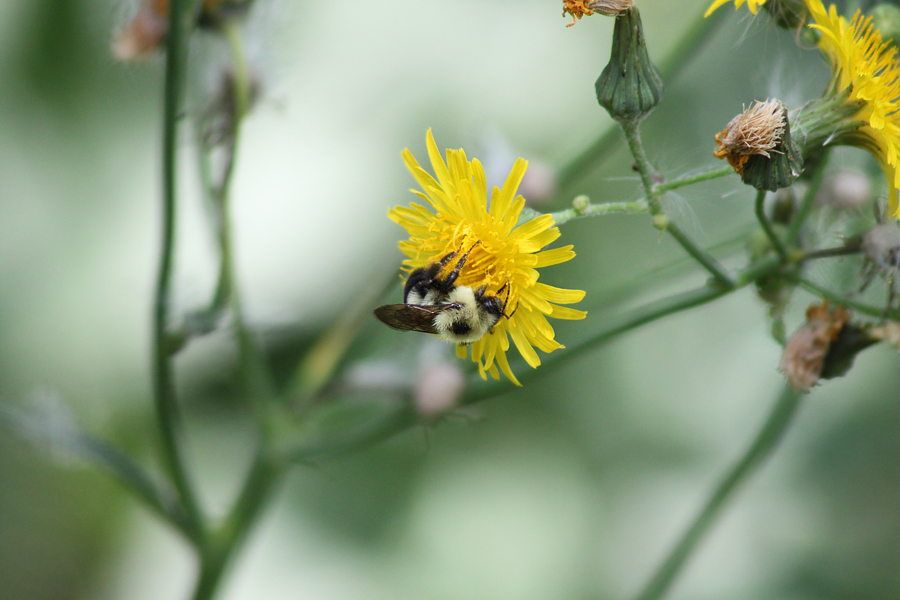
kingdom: Animalia
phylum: Arthropoda
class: Insecta
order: Hymenoptera
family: Apidae
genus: Bombus
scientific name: Bombus bimaculatus
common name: Two-spotted bumble bee
